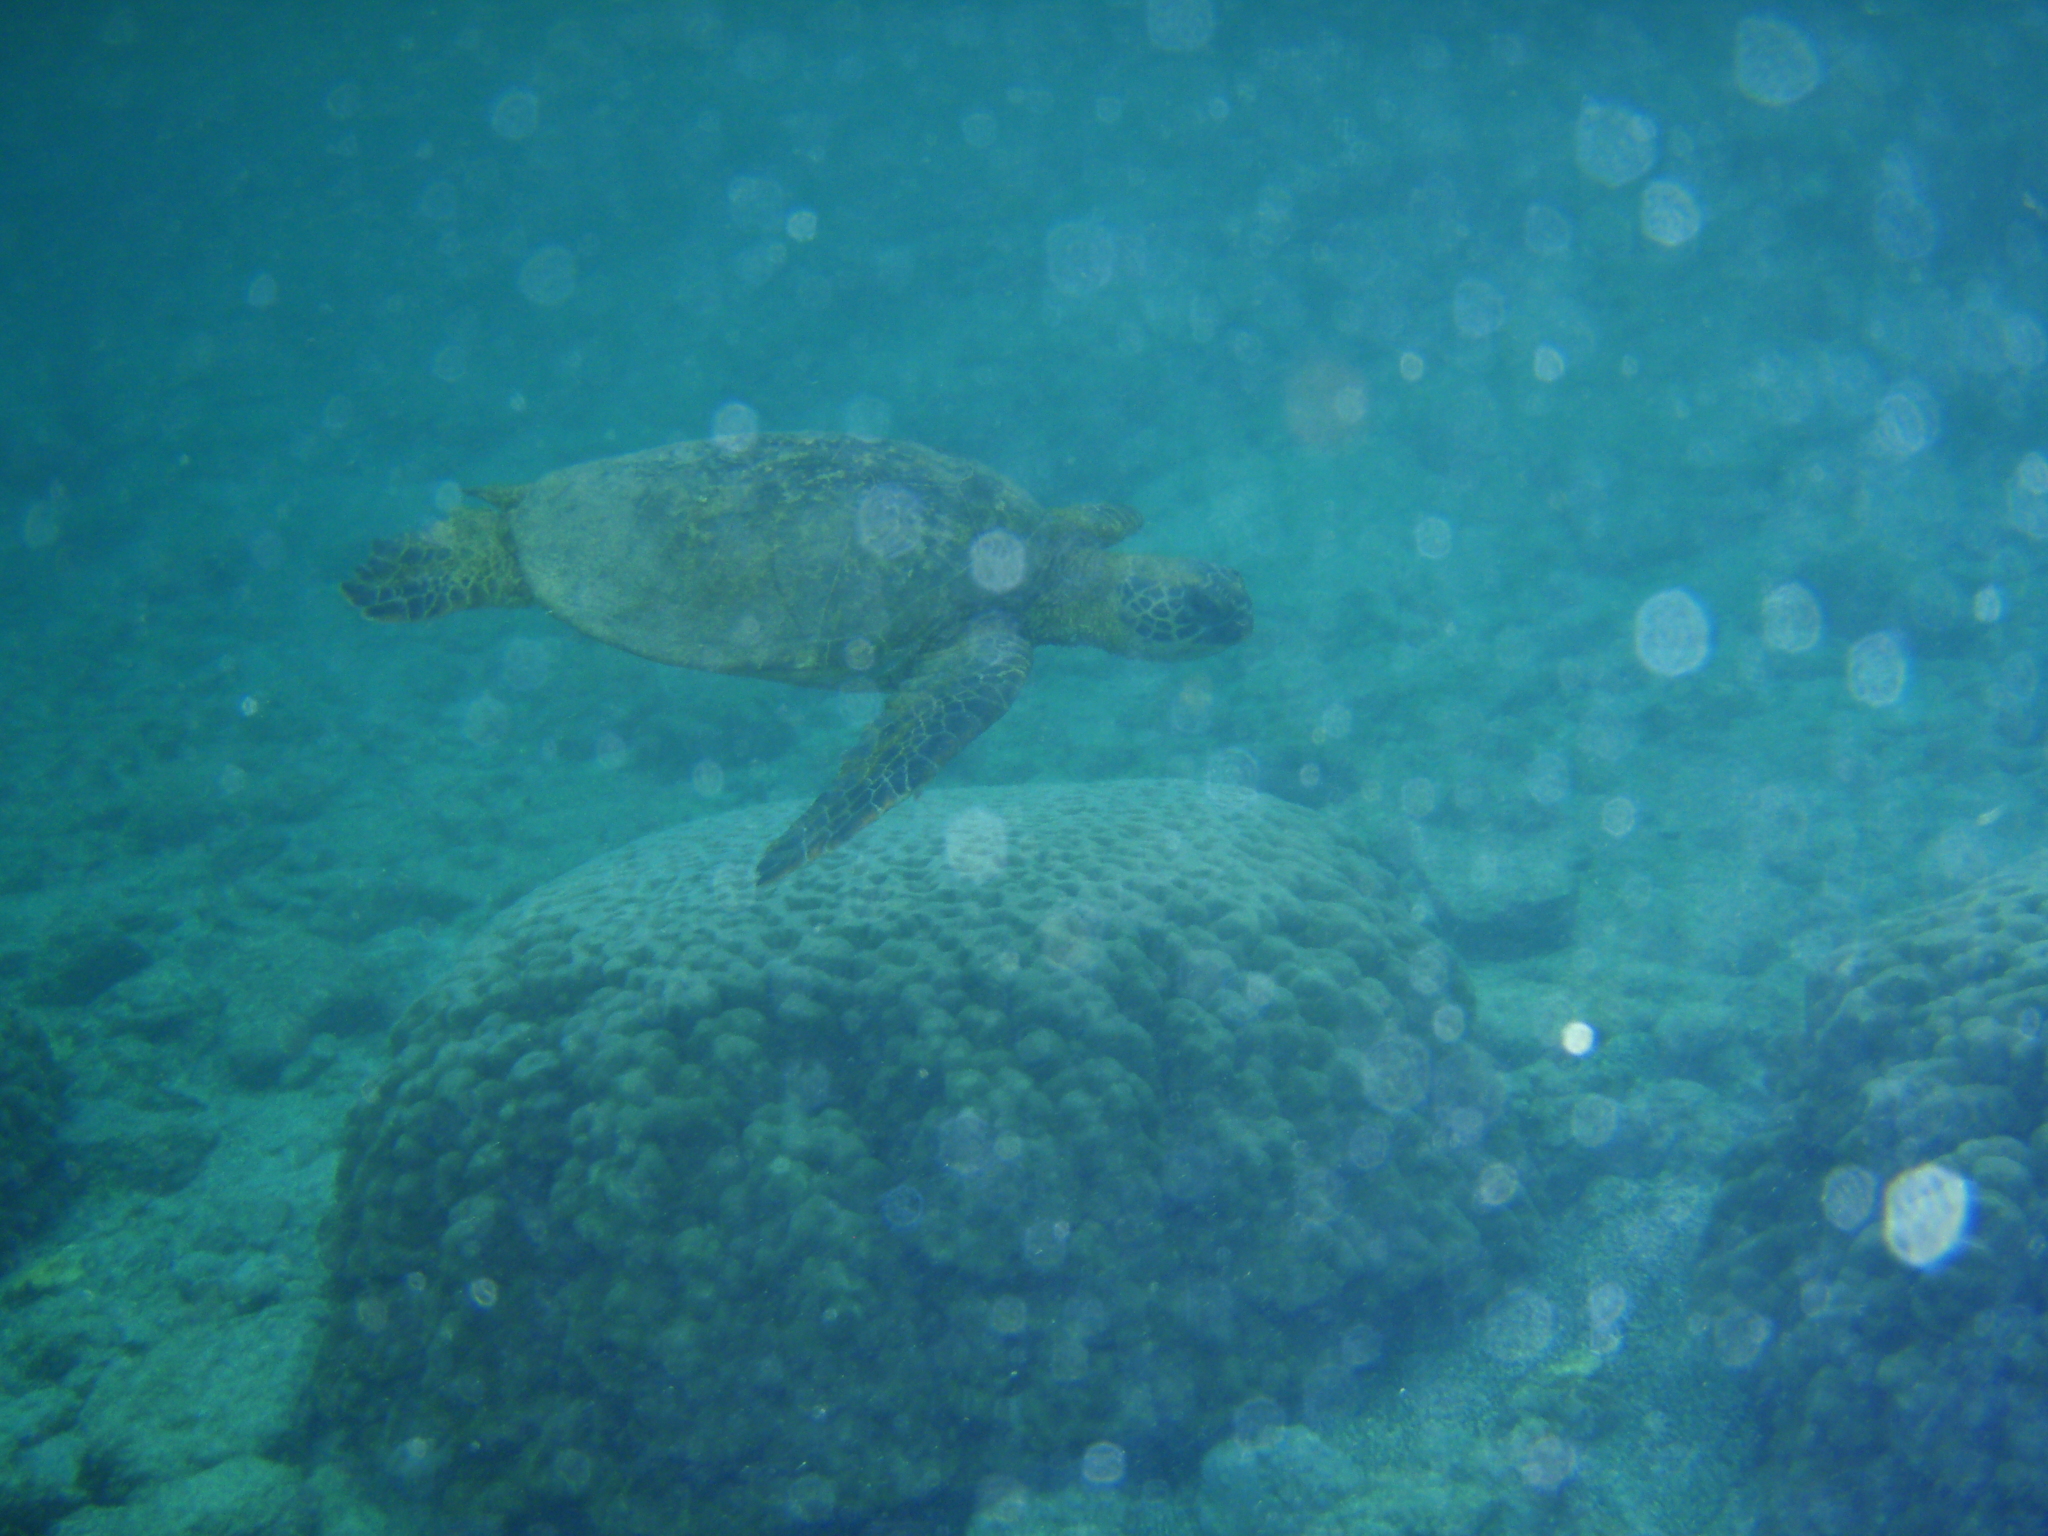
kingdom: Animalia
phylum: Chordata
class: Testudines
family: Cheloniidae
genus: Chelonia
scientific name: Chelonia mydas
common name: Green turtle
